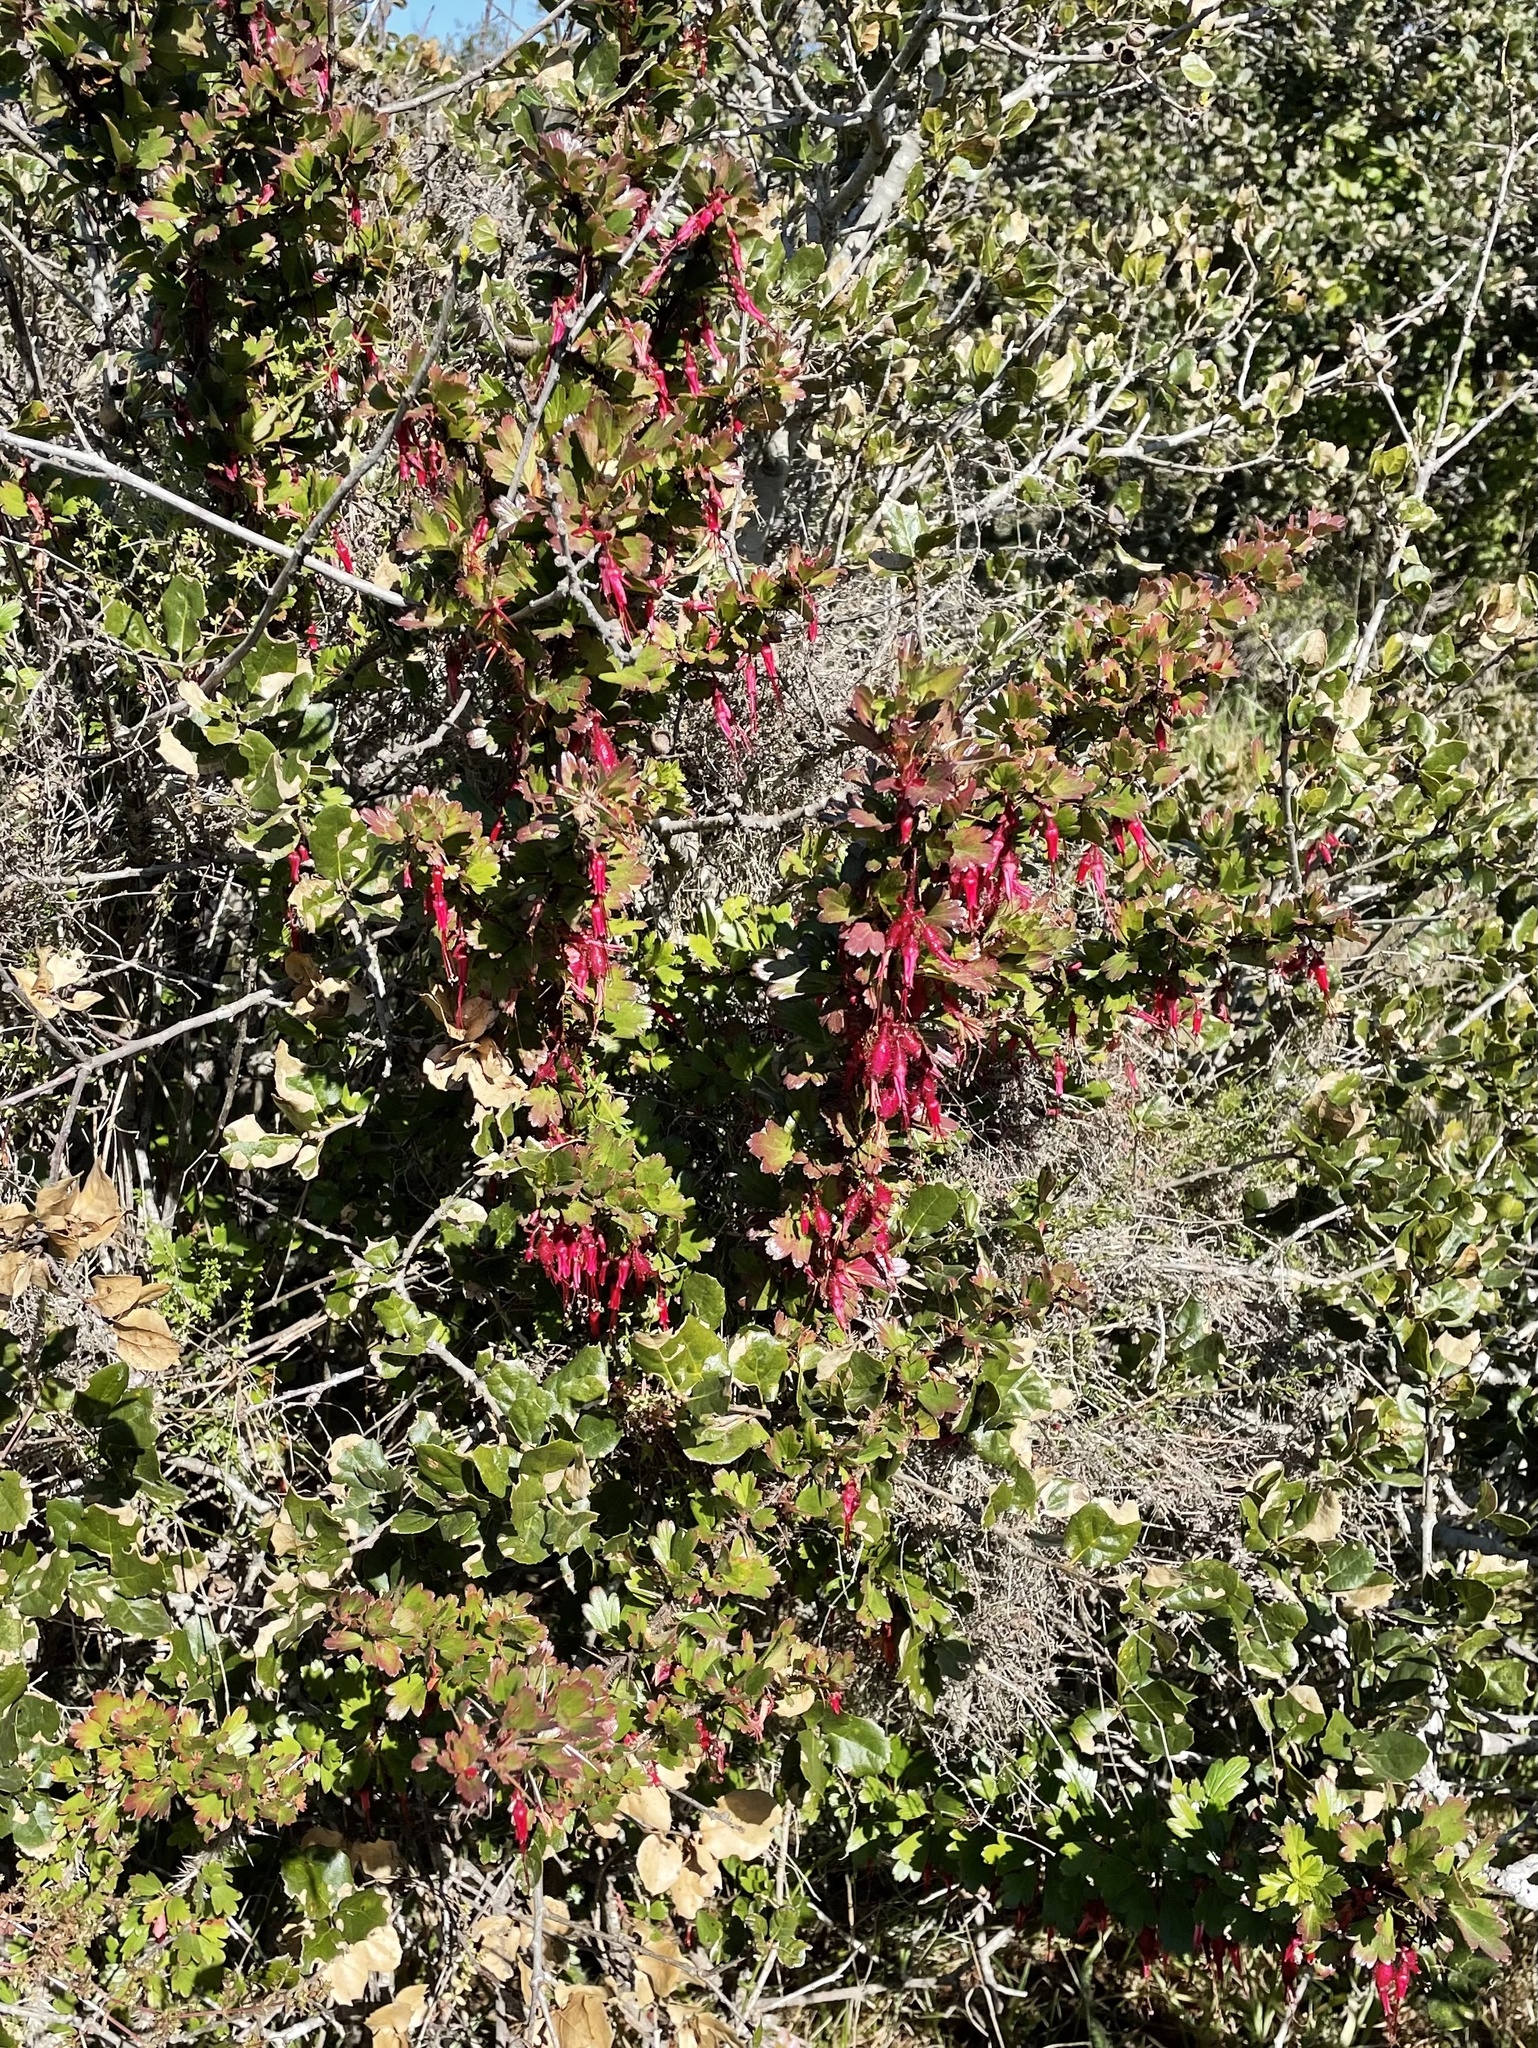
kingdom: Plantae
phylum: Tracheophyta
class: Magnoliopsida
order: Saxifragales
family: Grossulariaceae
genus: Ribes
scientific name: Ribes speciosum
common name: Fuchsia-flower gooseberry
